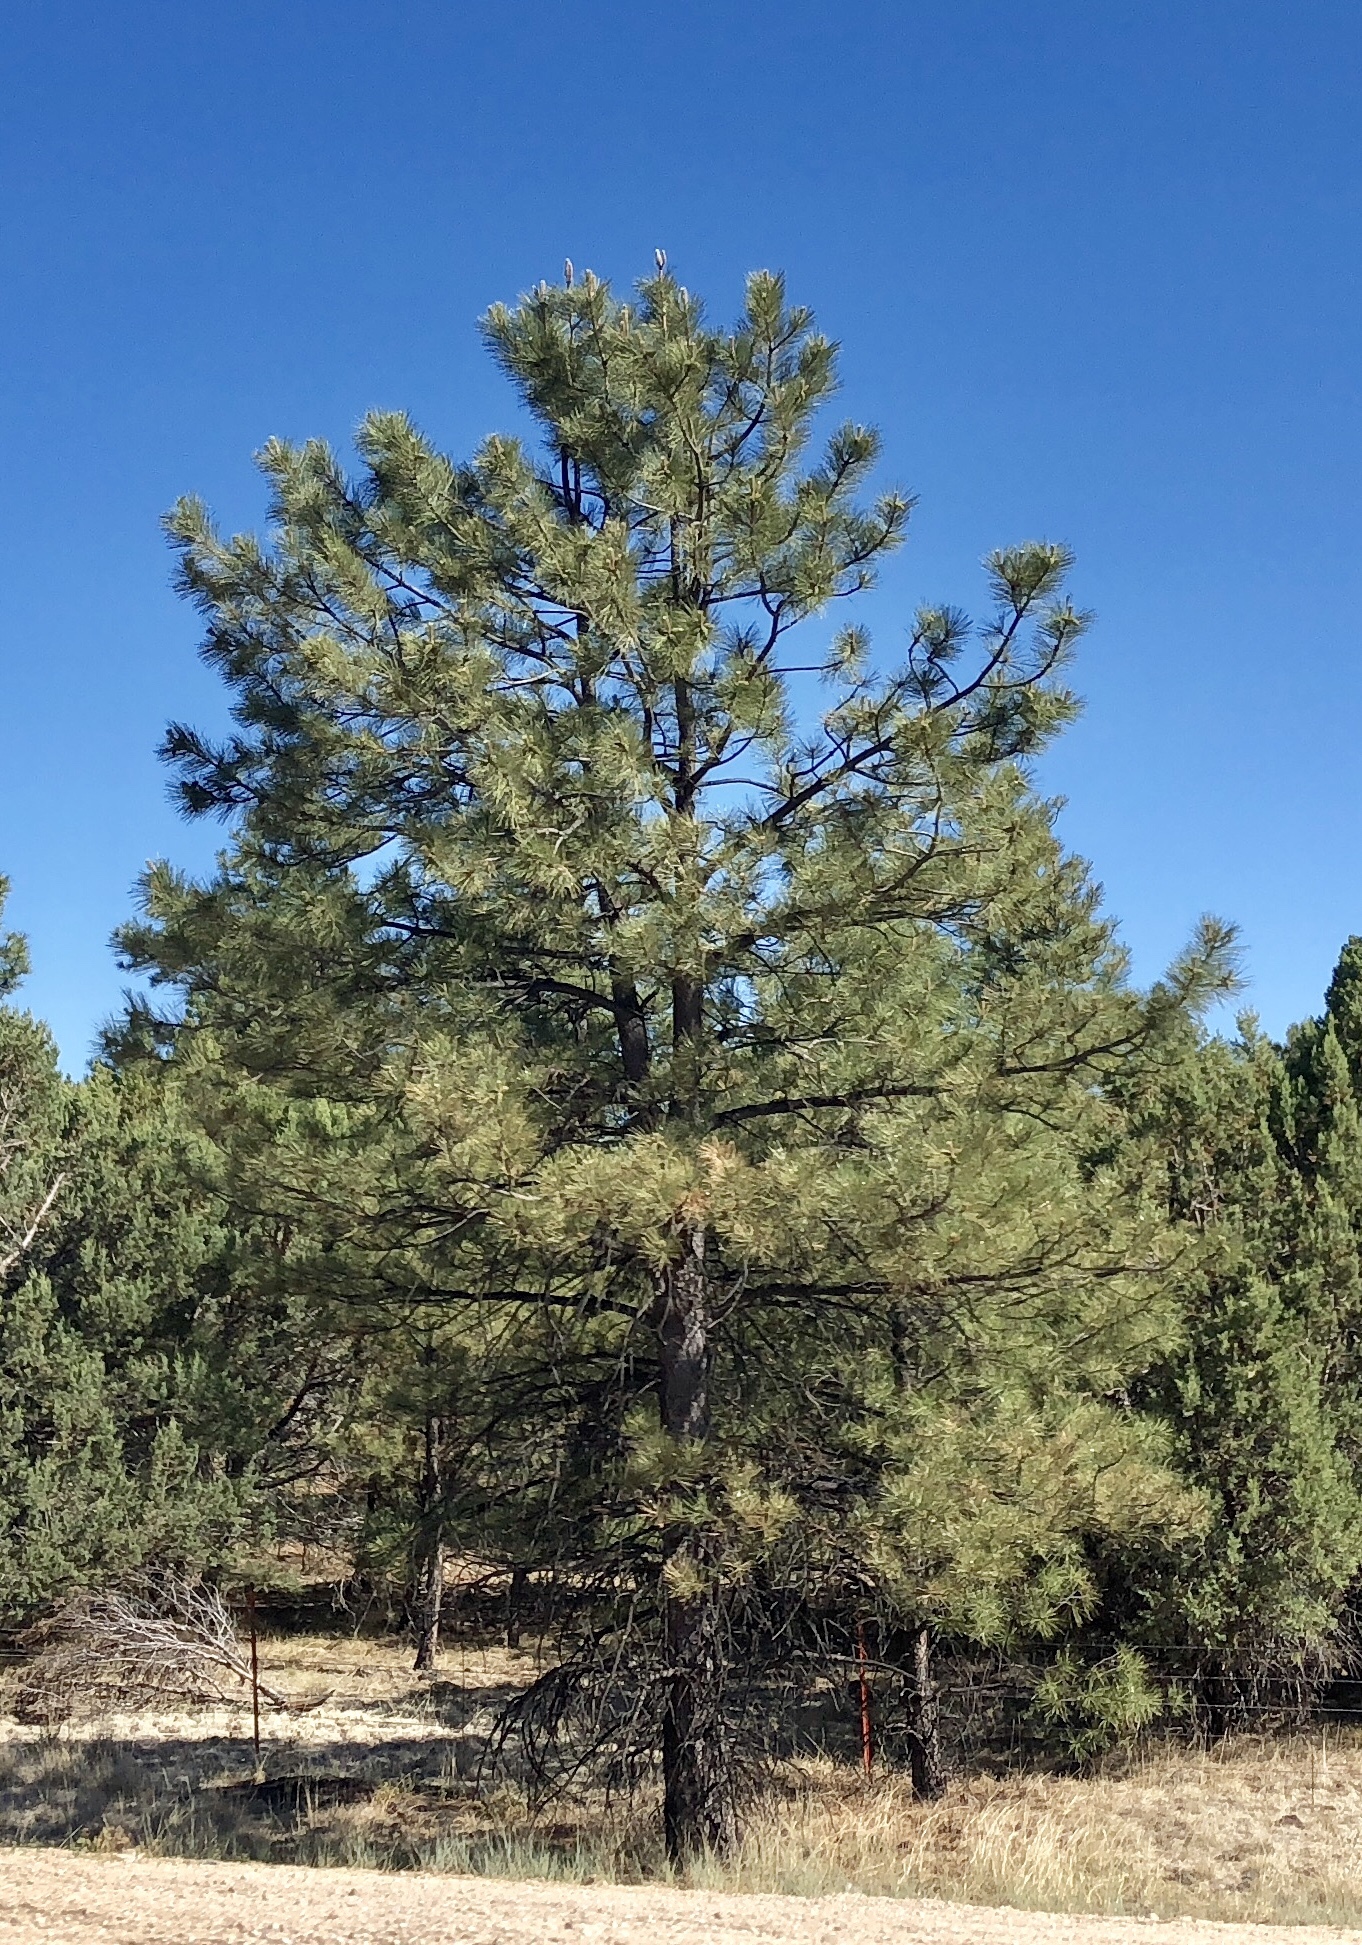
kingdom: Plantae
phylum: Tracheophyta
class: Pinopsida
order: Pinales
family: Pinaceae
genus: Pinus
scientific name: Pinus ponderosa
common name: Western yellow-pine
